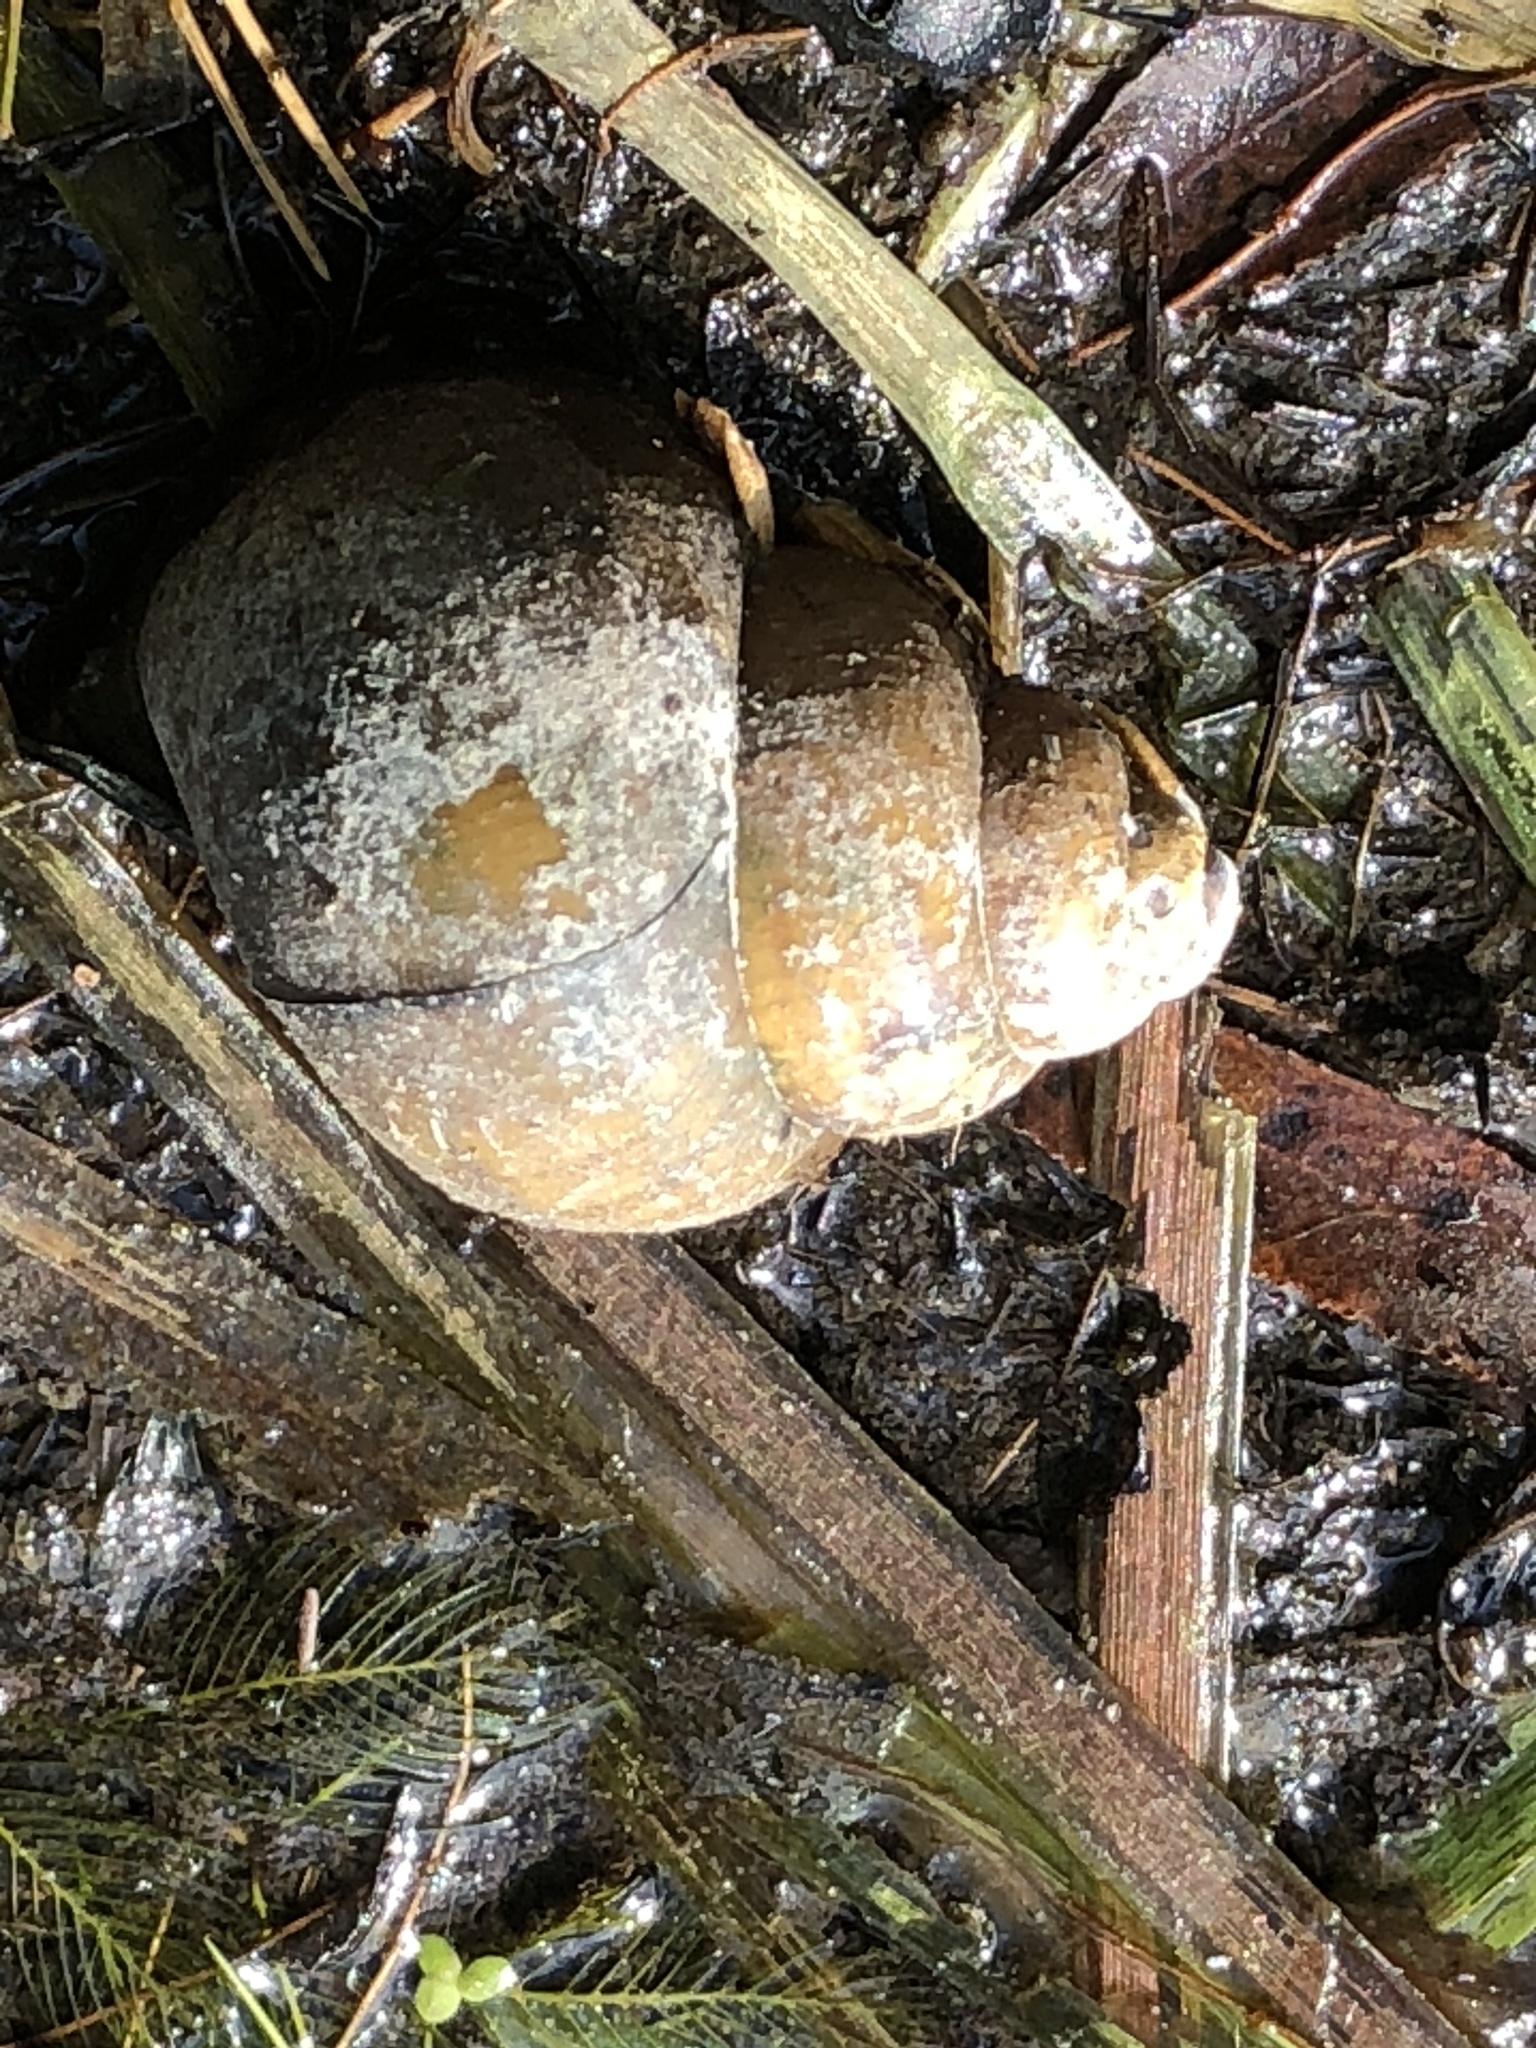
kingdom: Animalia
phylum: Mollusca
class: Gastropoda
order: Architaenioglossa
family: Viviparidae
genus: Cipangopaludina
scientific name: Cipangopaludina chinensis
